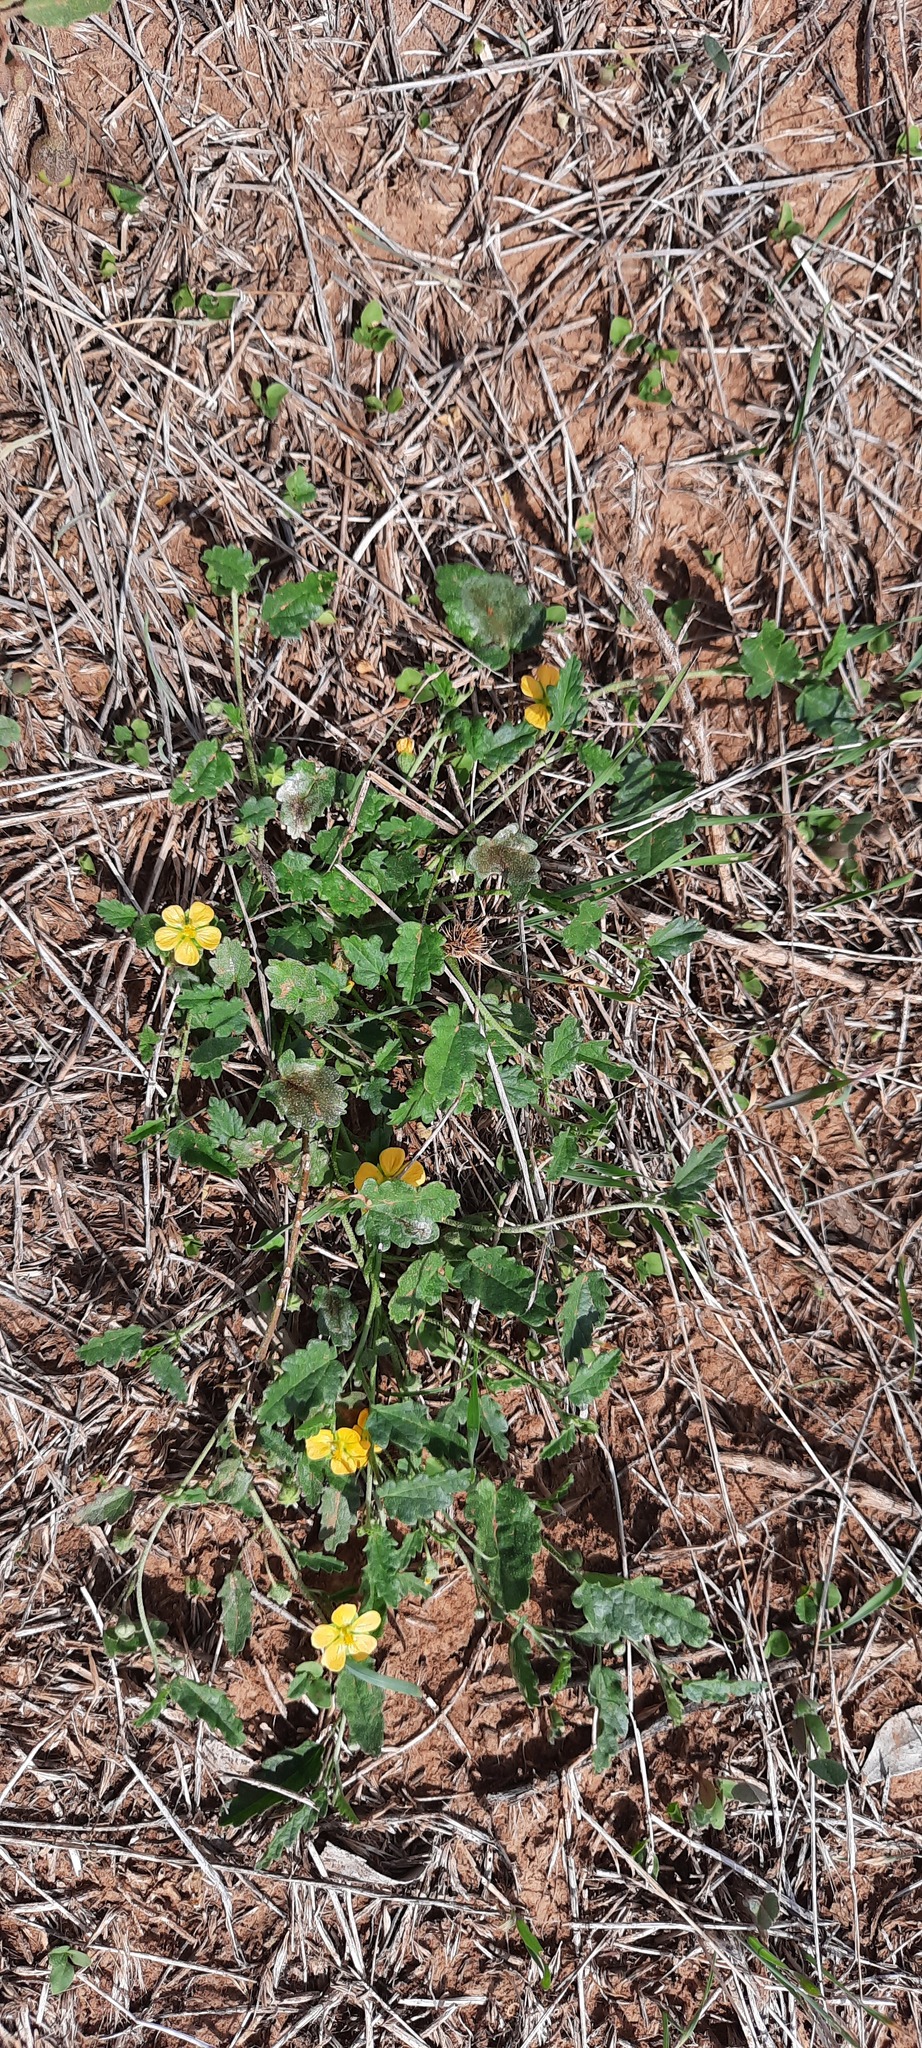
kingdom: Plantae
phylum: Tracheophyta
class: Magnoliopsida
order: Malvales
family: Malvaceae
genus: Sida
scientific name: Sida corrugata
